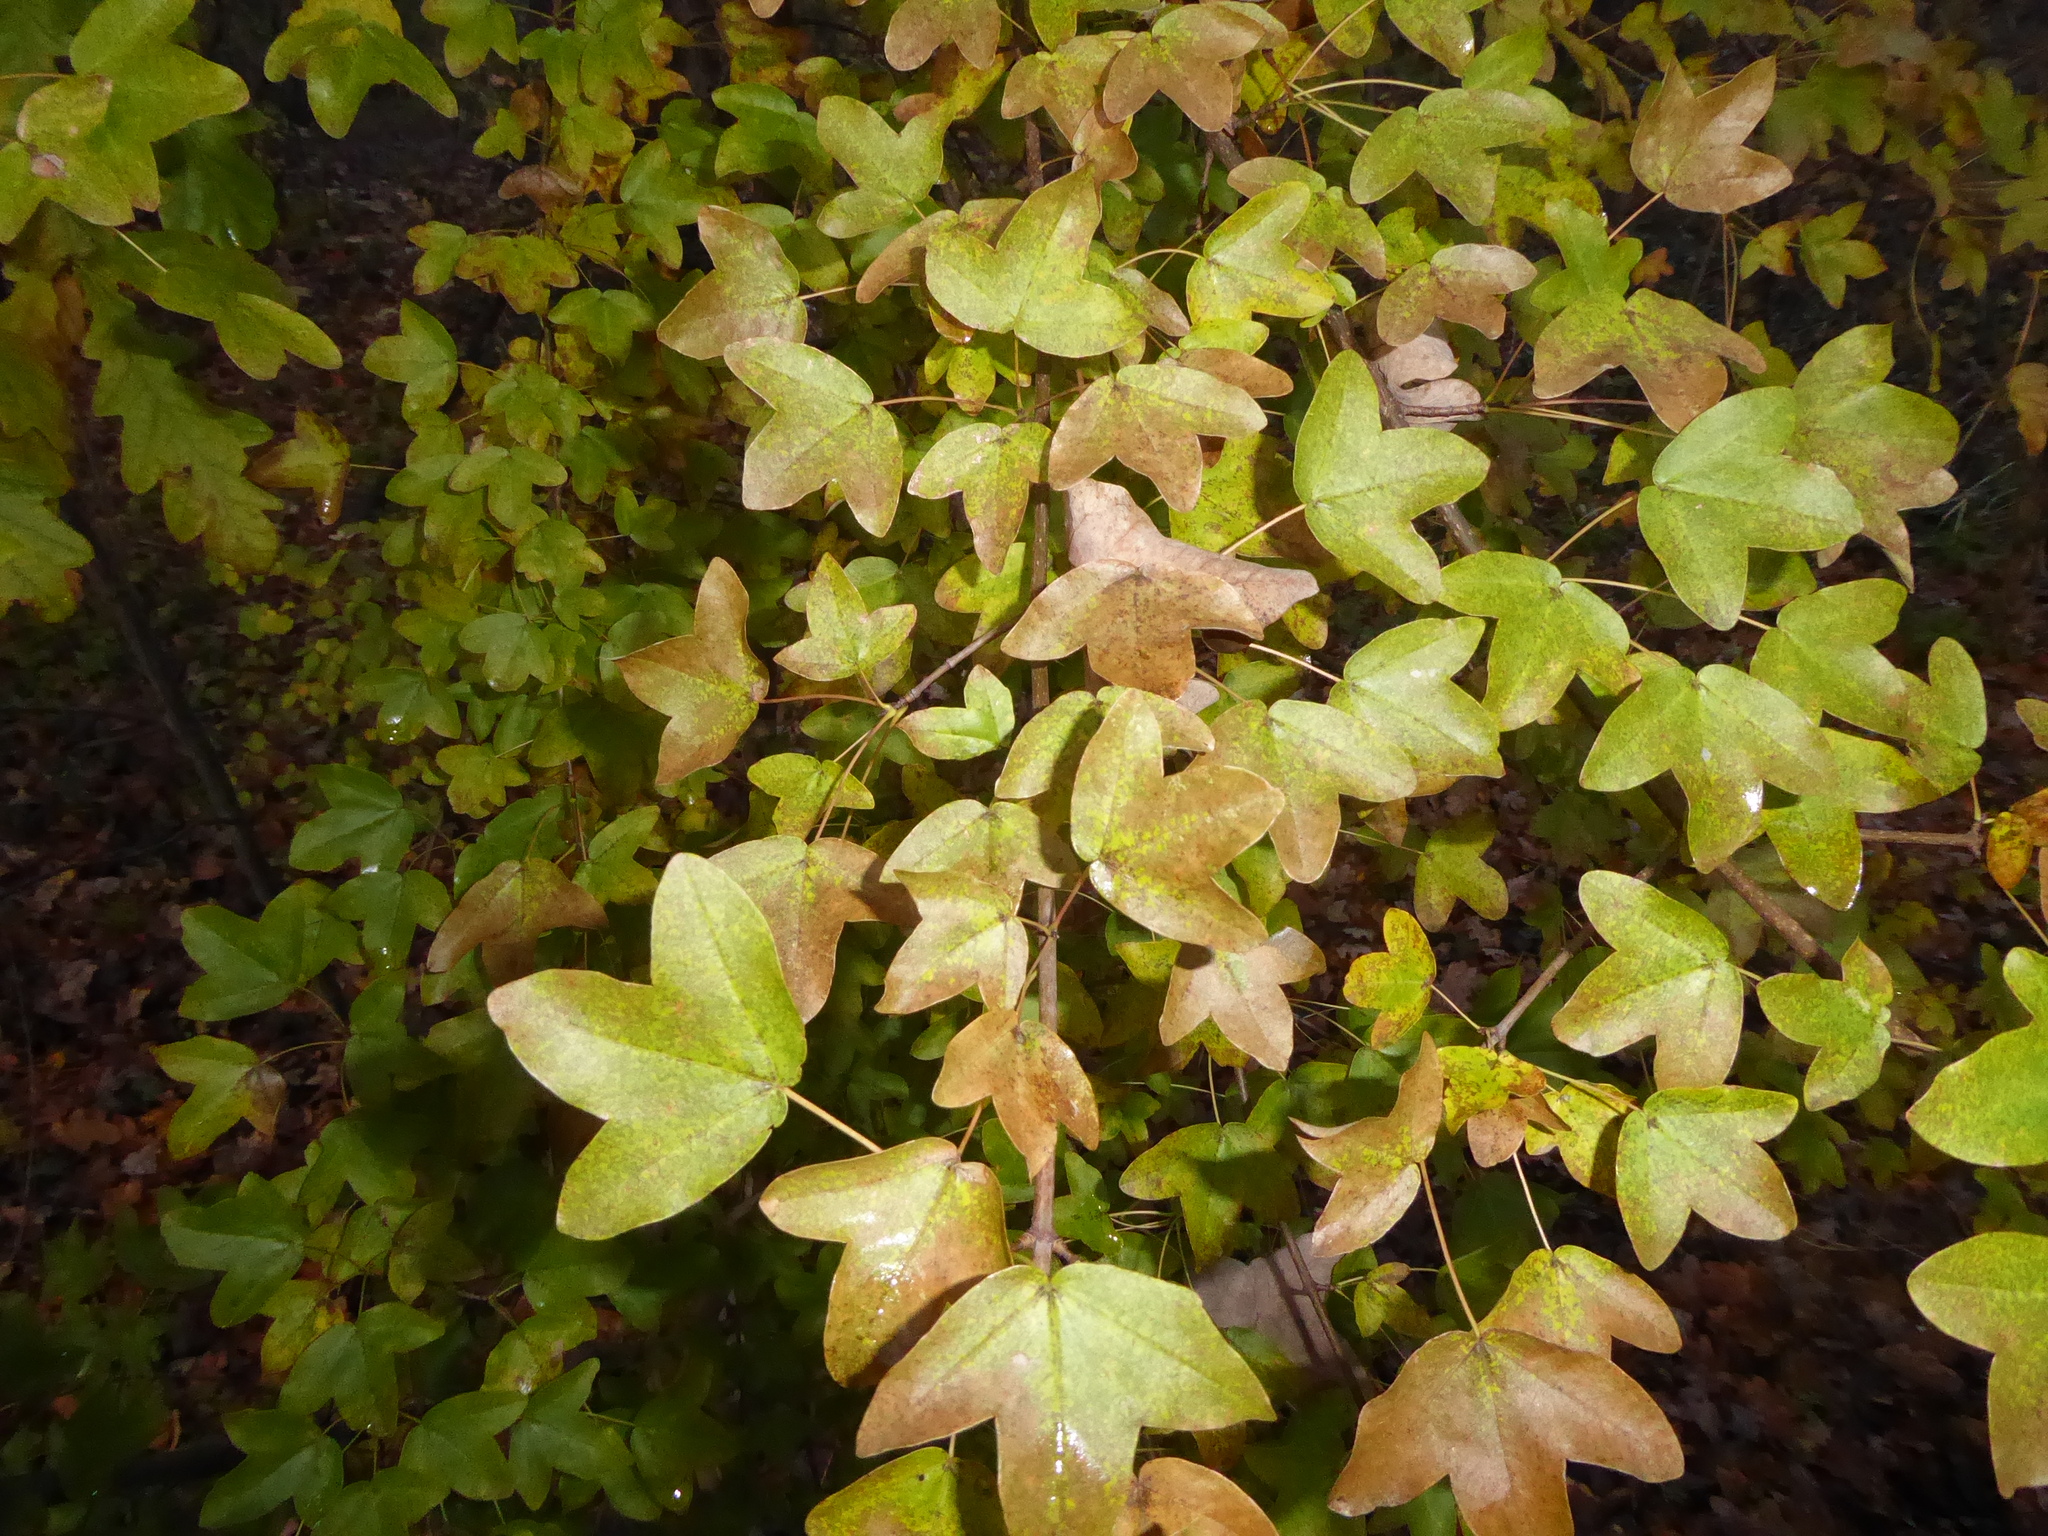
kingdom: Plantae
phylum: Tracheophyta
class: Magnoliopsida
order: Sapindales
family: Sapindaceae
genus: Acer
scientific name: Acer monspessulanum
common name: Montpellier maple
